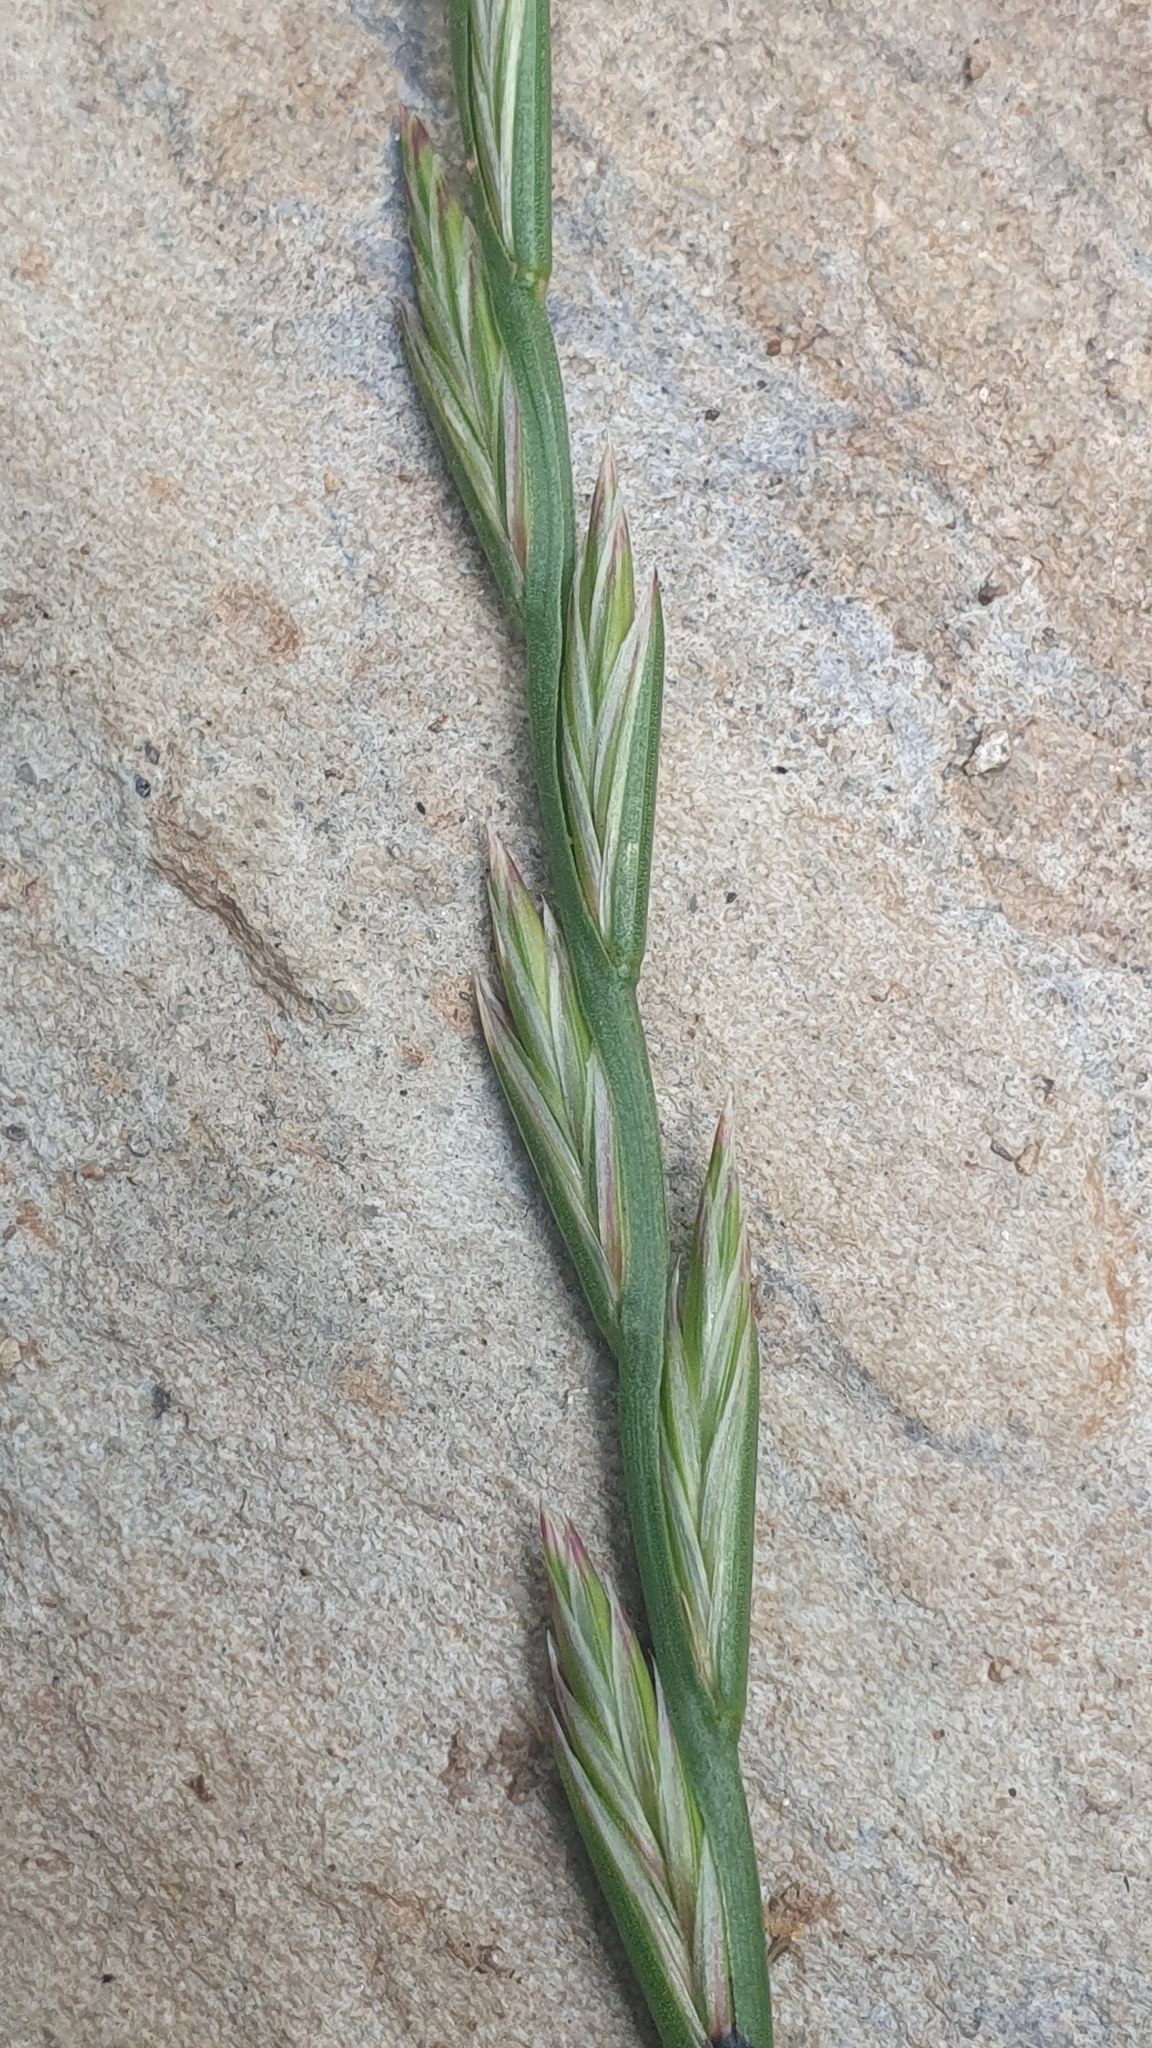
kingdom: Plantae
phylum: Tracheophyta
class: Liliopsida
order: Poales
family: Poaceae
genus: Lolium
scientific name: Lolium perenne
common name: Perennial ryegrass
